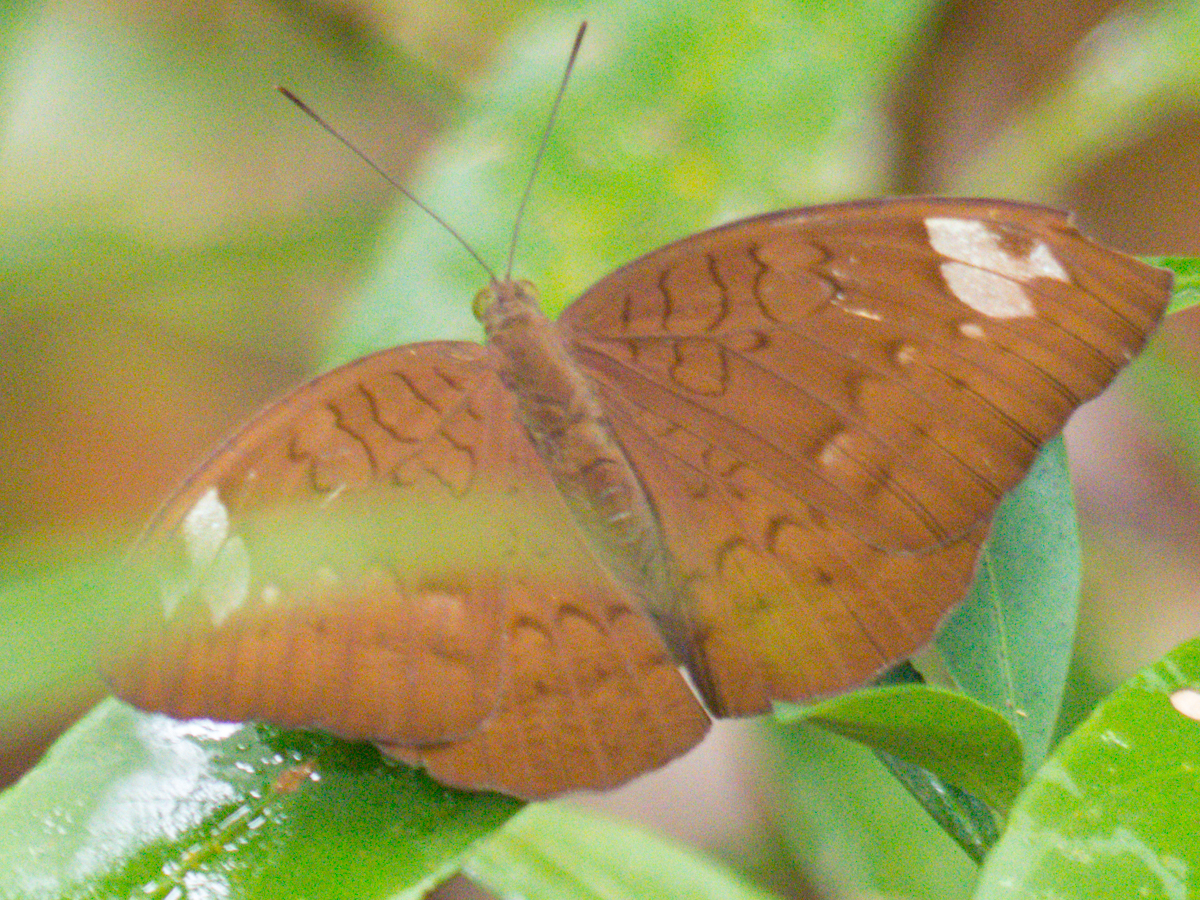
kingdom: Animalia
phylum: Arthropoda
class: Insecta
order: Lepidoptera
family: Nymphalidae
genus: Tanaecia
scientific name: Tanaecia julii
